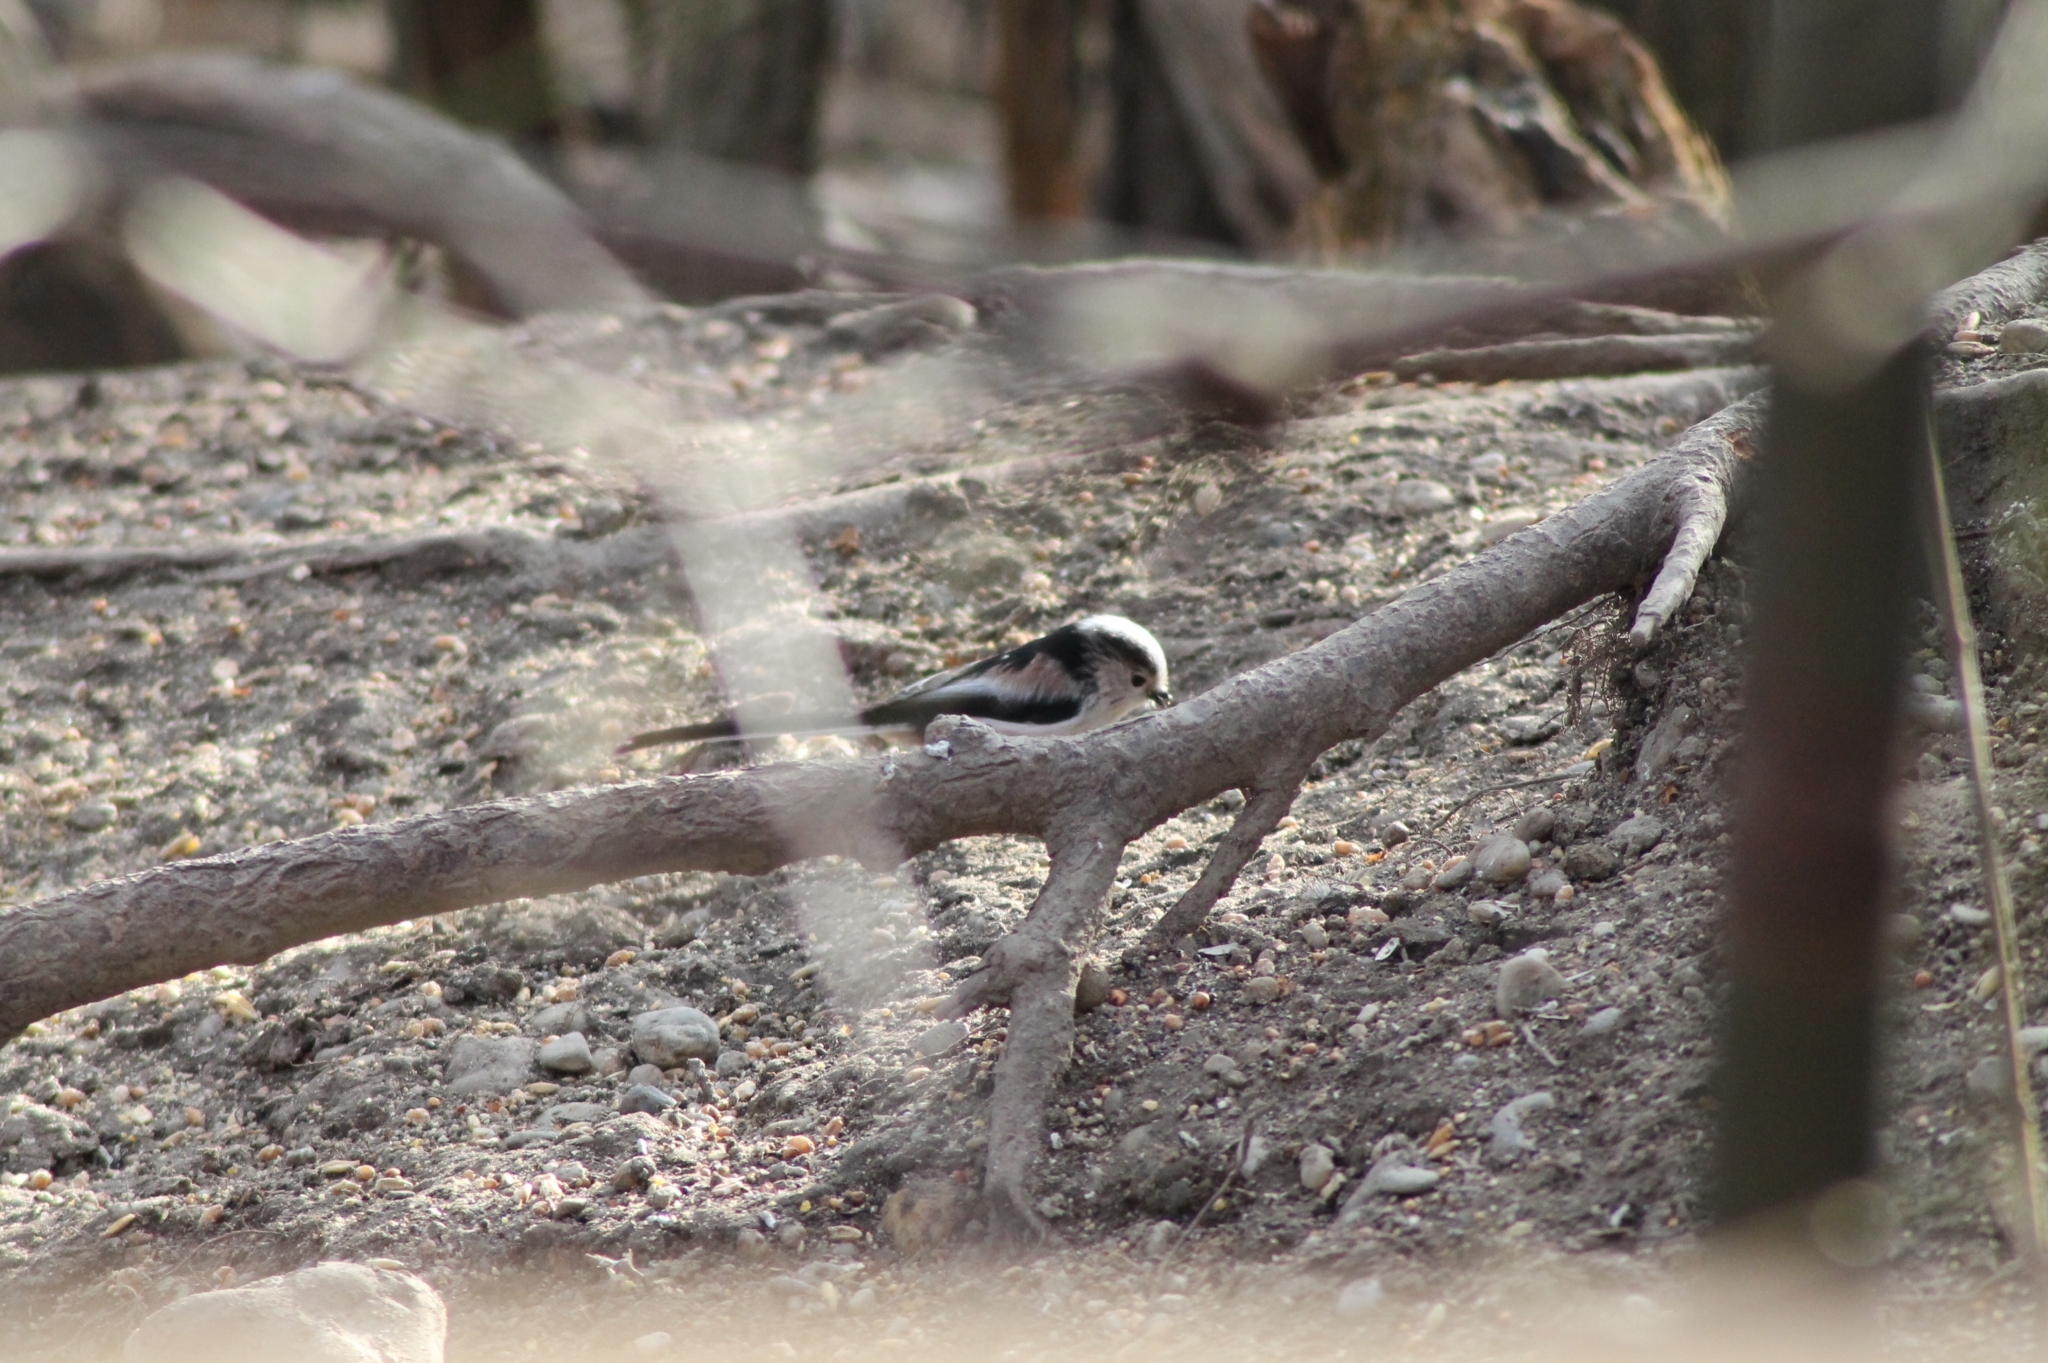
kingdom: Animalia
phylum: Chordata
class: Aves
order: Passeriformes
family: Aegithalidae
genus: Aegithalos
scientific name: Aegithalos caudatus
